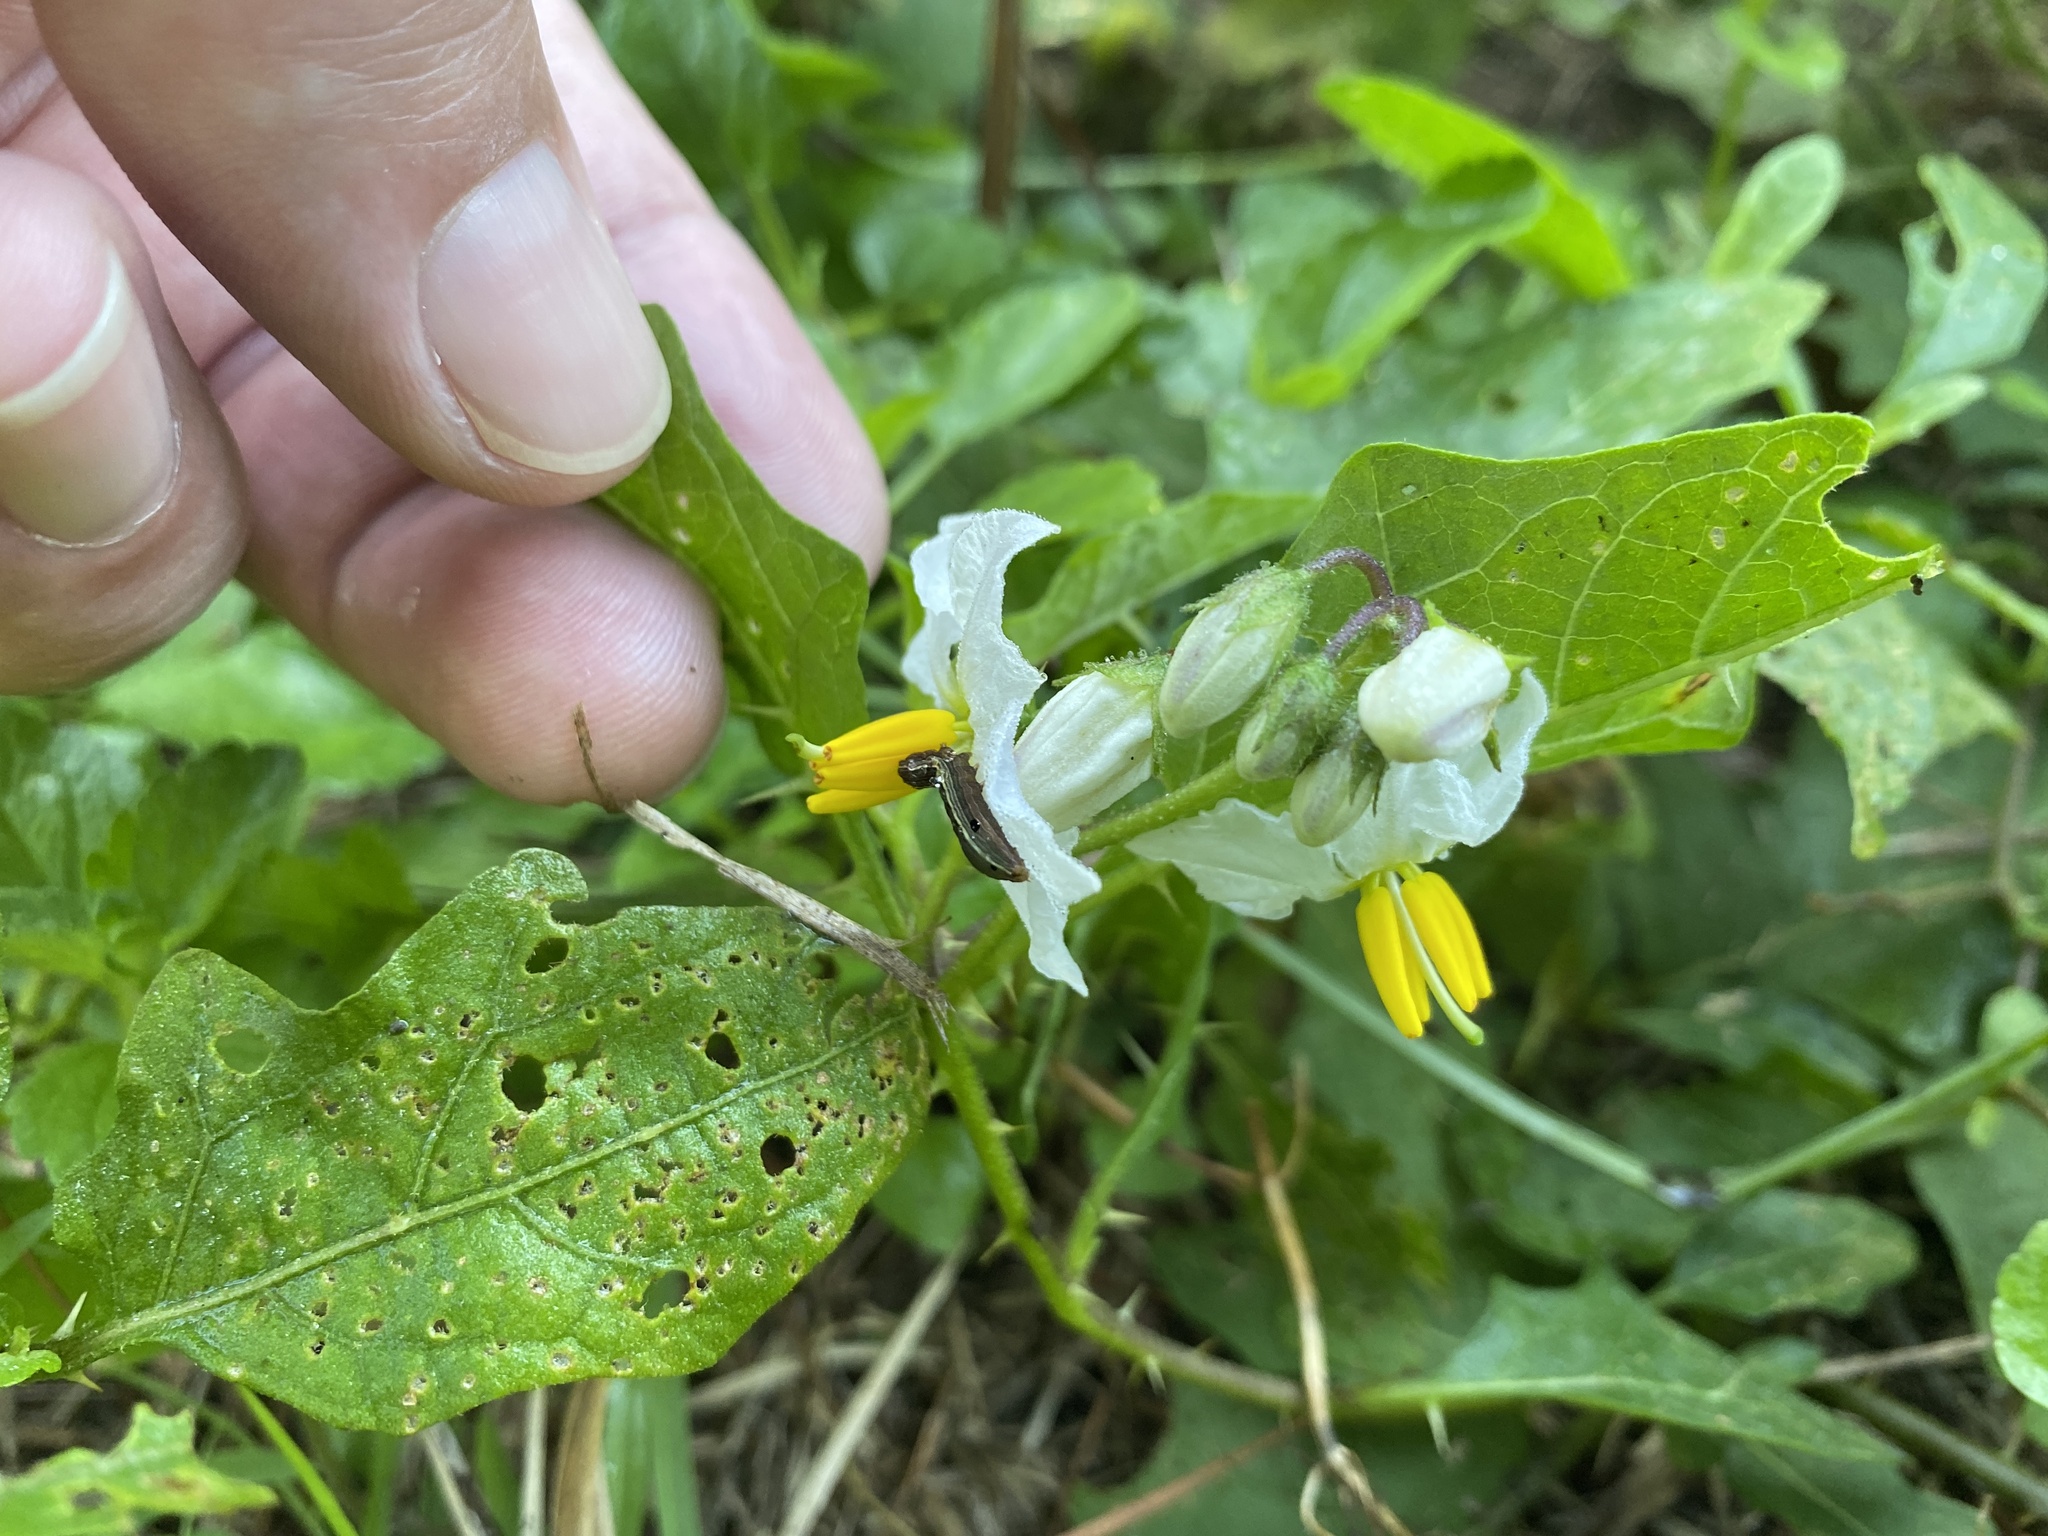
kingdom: Plantae
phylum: Tracheophyta
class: Magnoliopsida
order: Solanales
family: Solanaceae
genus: Solanum
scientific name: Solanum carolinense
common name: Horse-nettle
